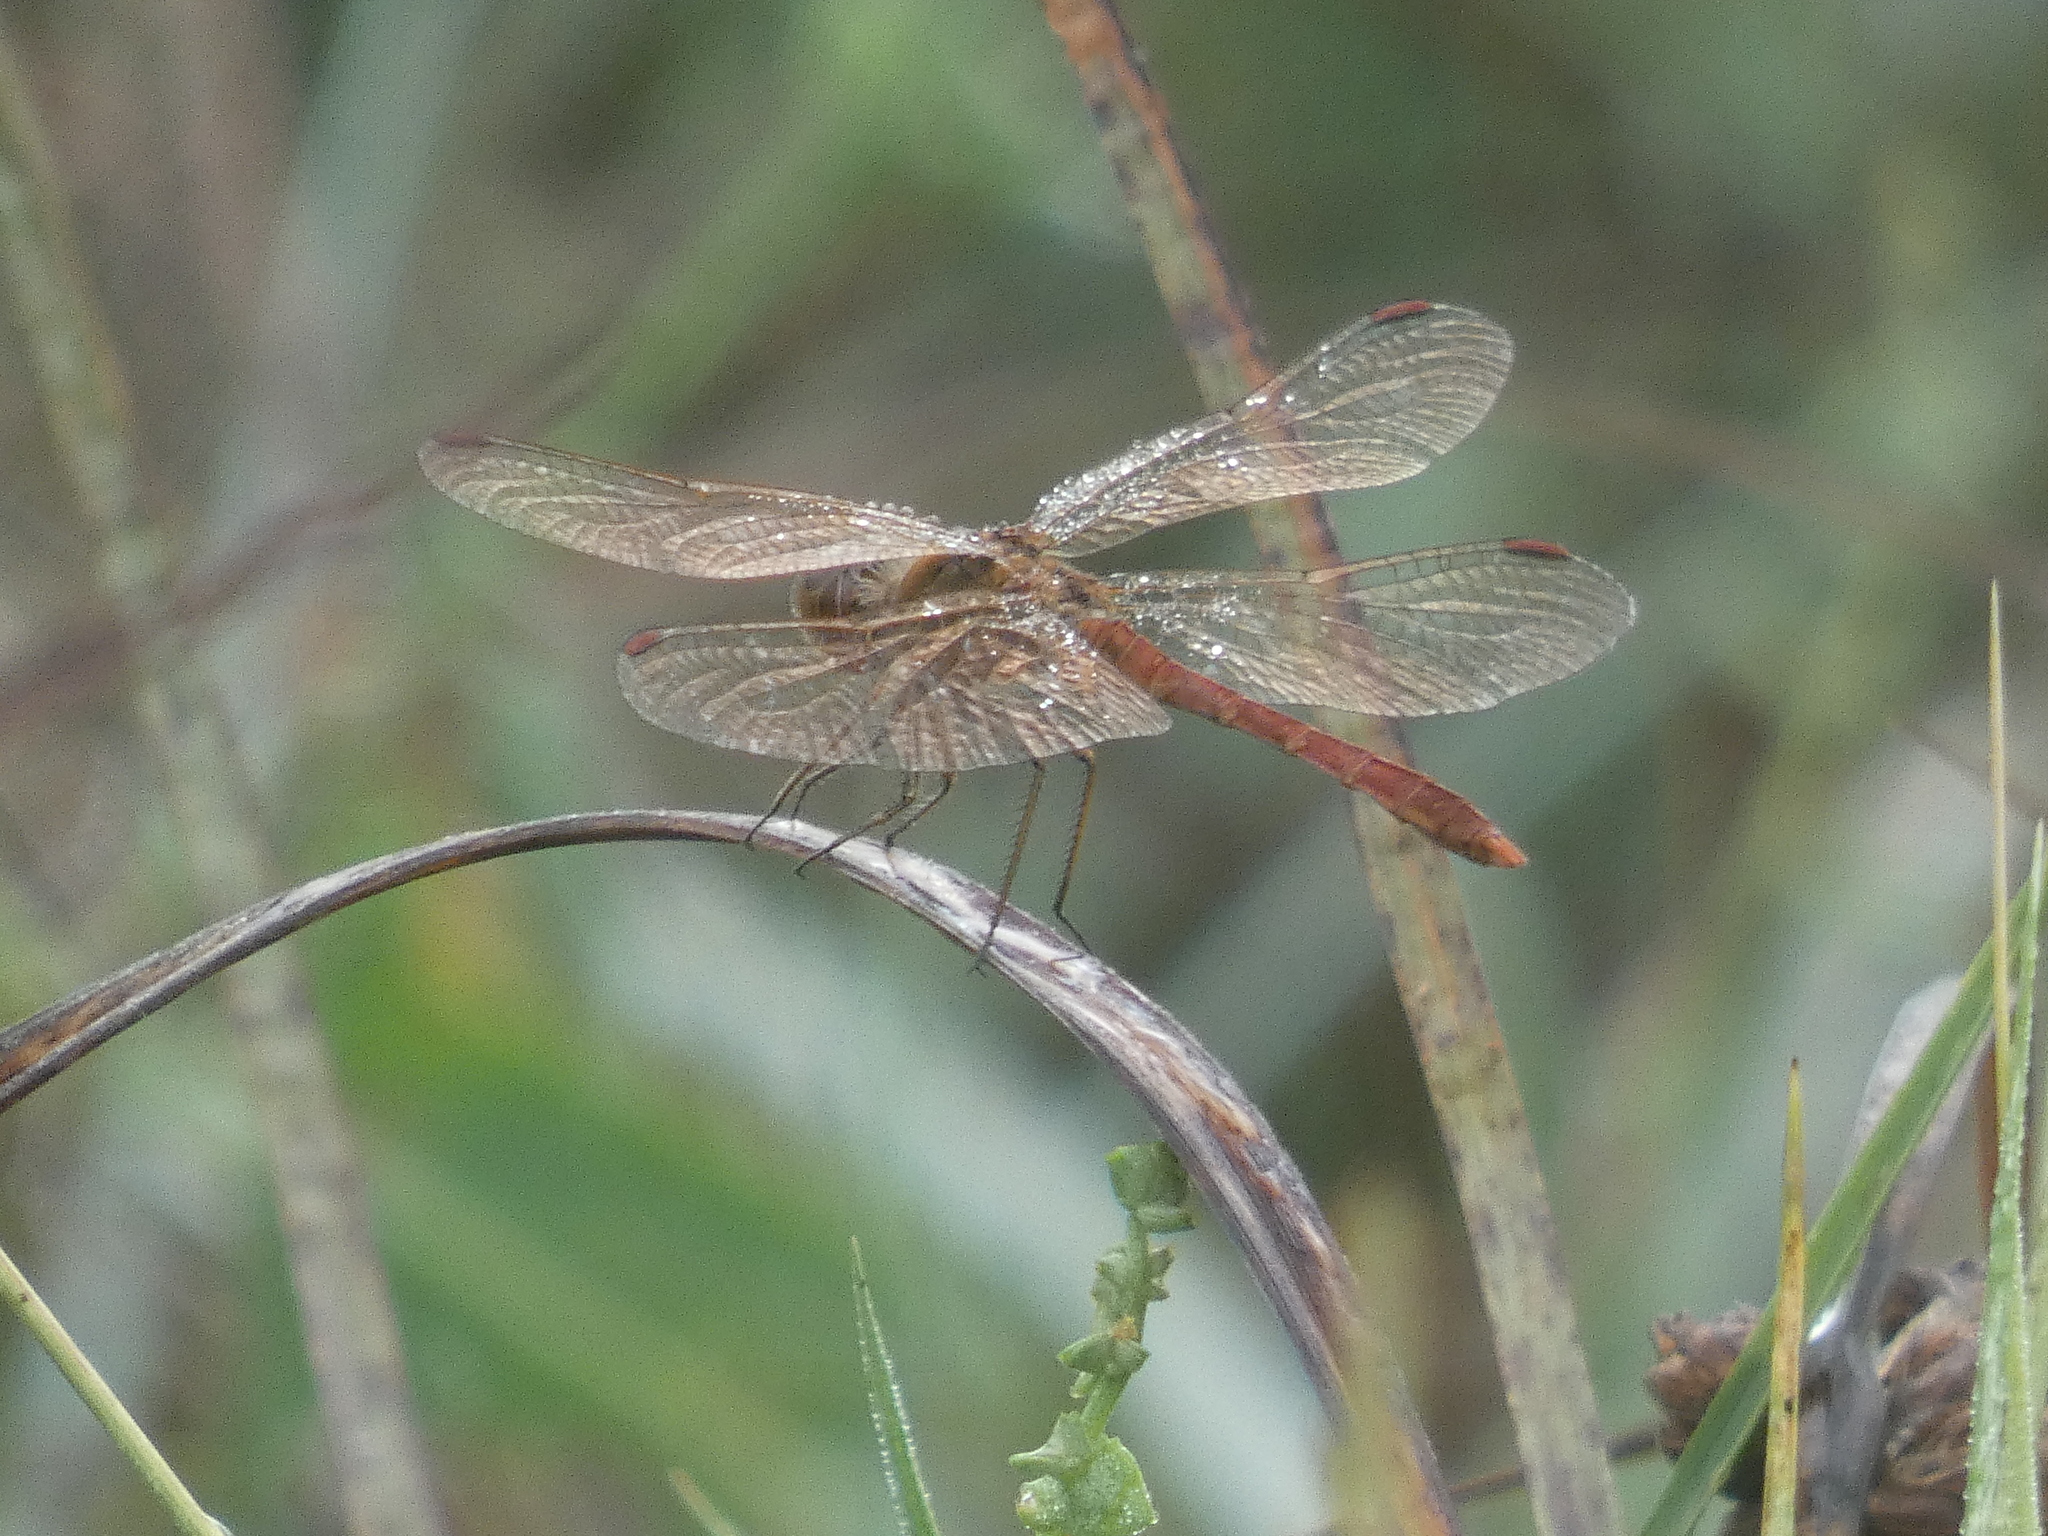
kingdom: Animalia
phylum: Arthropoda
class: Insecta
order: Odonata
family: Libellulidae
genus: Sympetrum
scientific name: Sympetrum meridionale
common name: Southern darter
